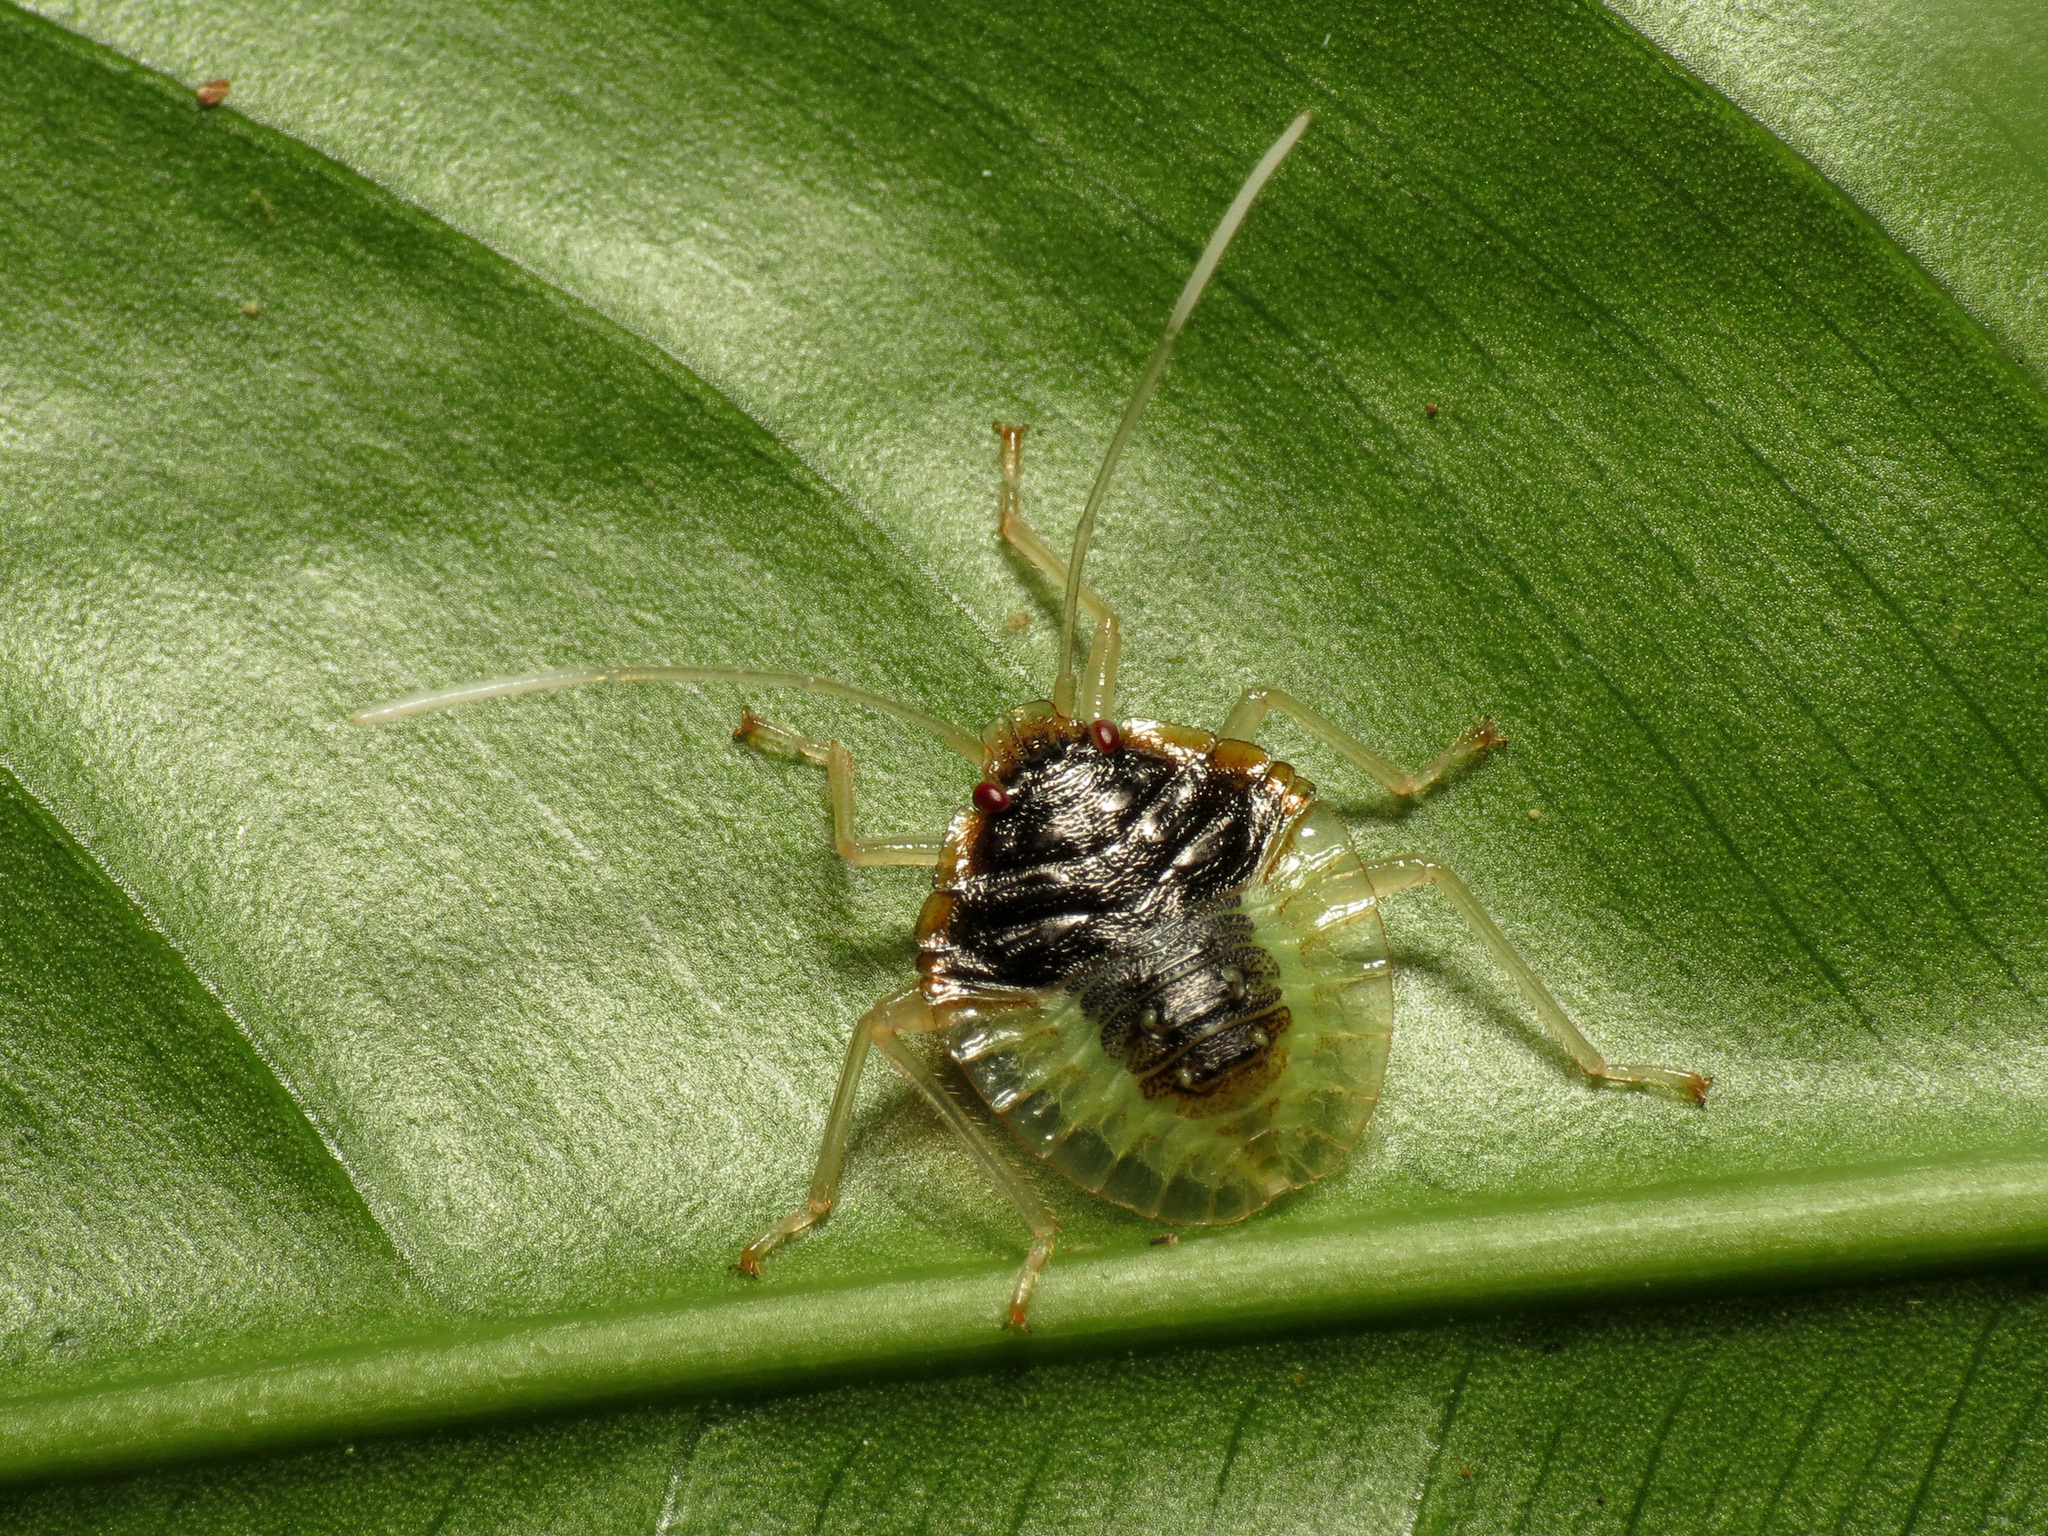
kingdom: Animalia
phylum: Arthropoda
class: Insecta
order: Hemiptera
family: Pentatomidae
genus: Grammedessa
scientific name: Grammedessa
